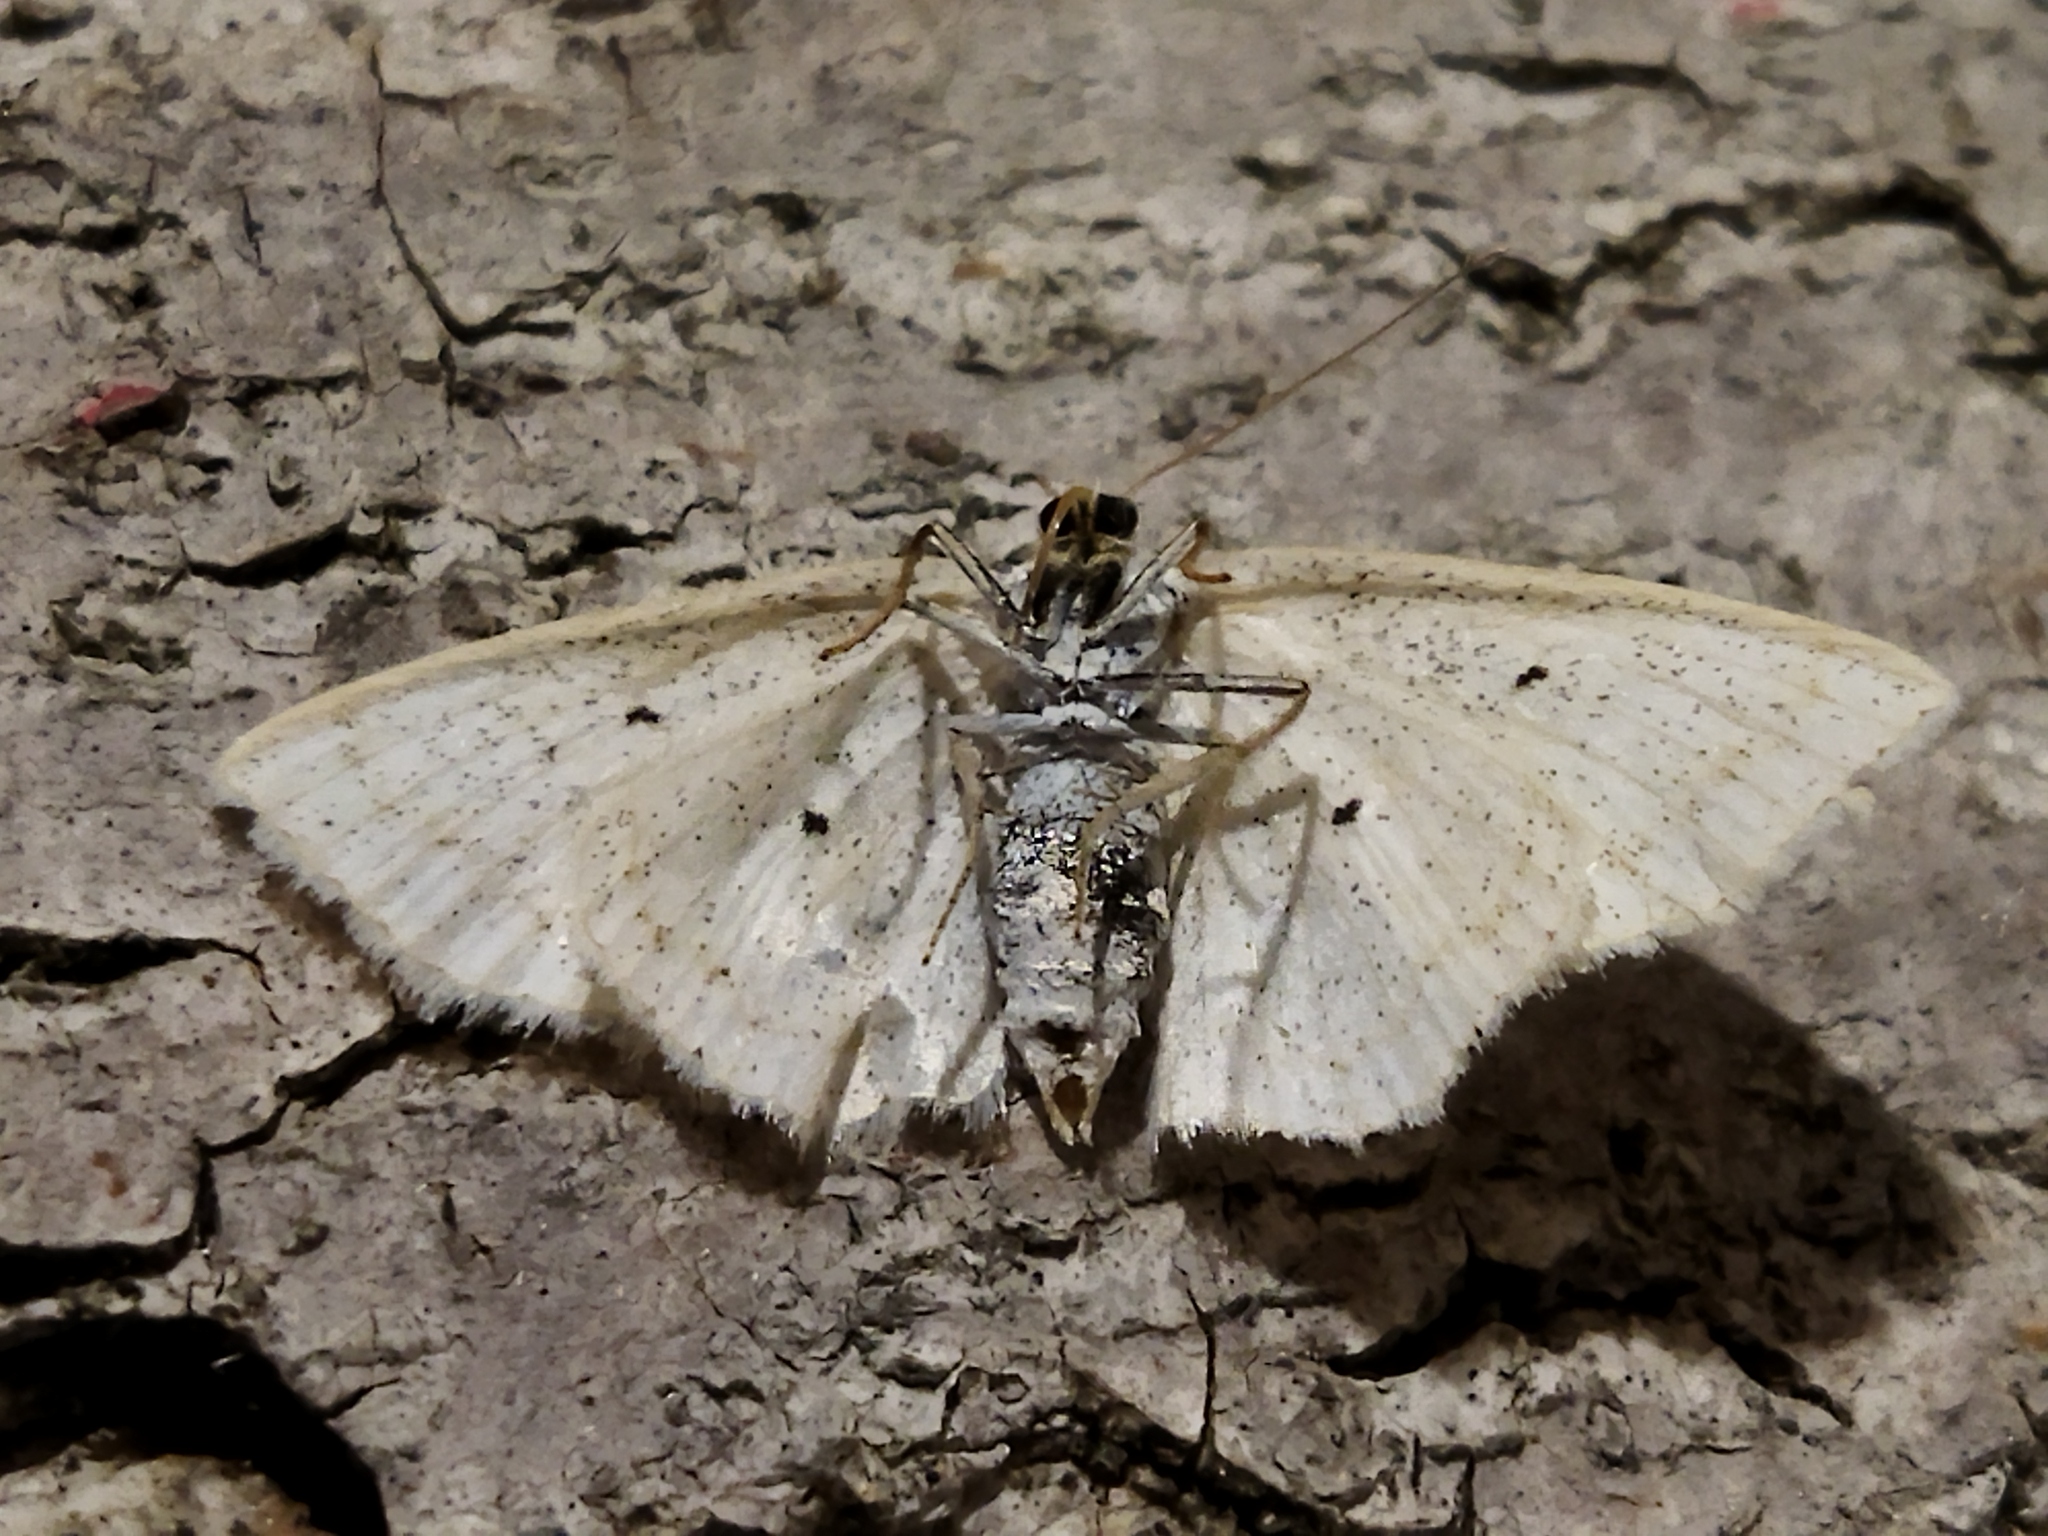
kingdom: Animalia
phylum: Arthropoda
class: Insecta
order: Lepidoptera
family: Geometridae
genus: Scopula
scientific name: Scopula immutata
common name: Lesser cream wave
